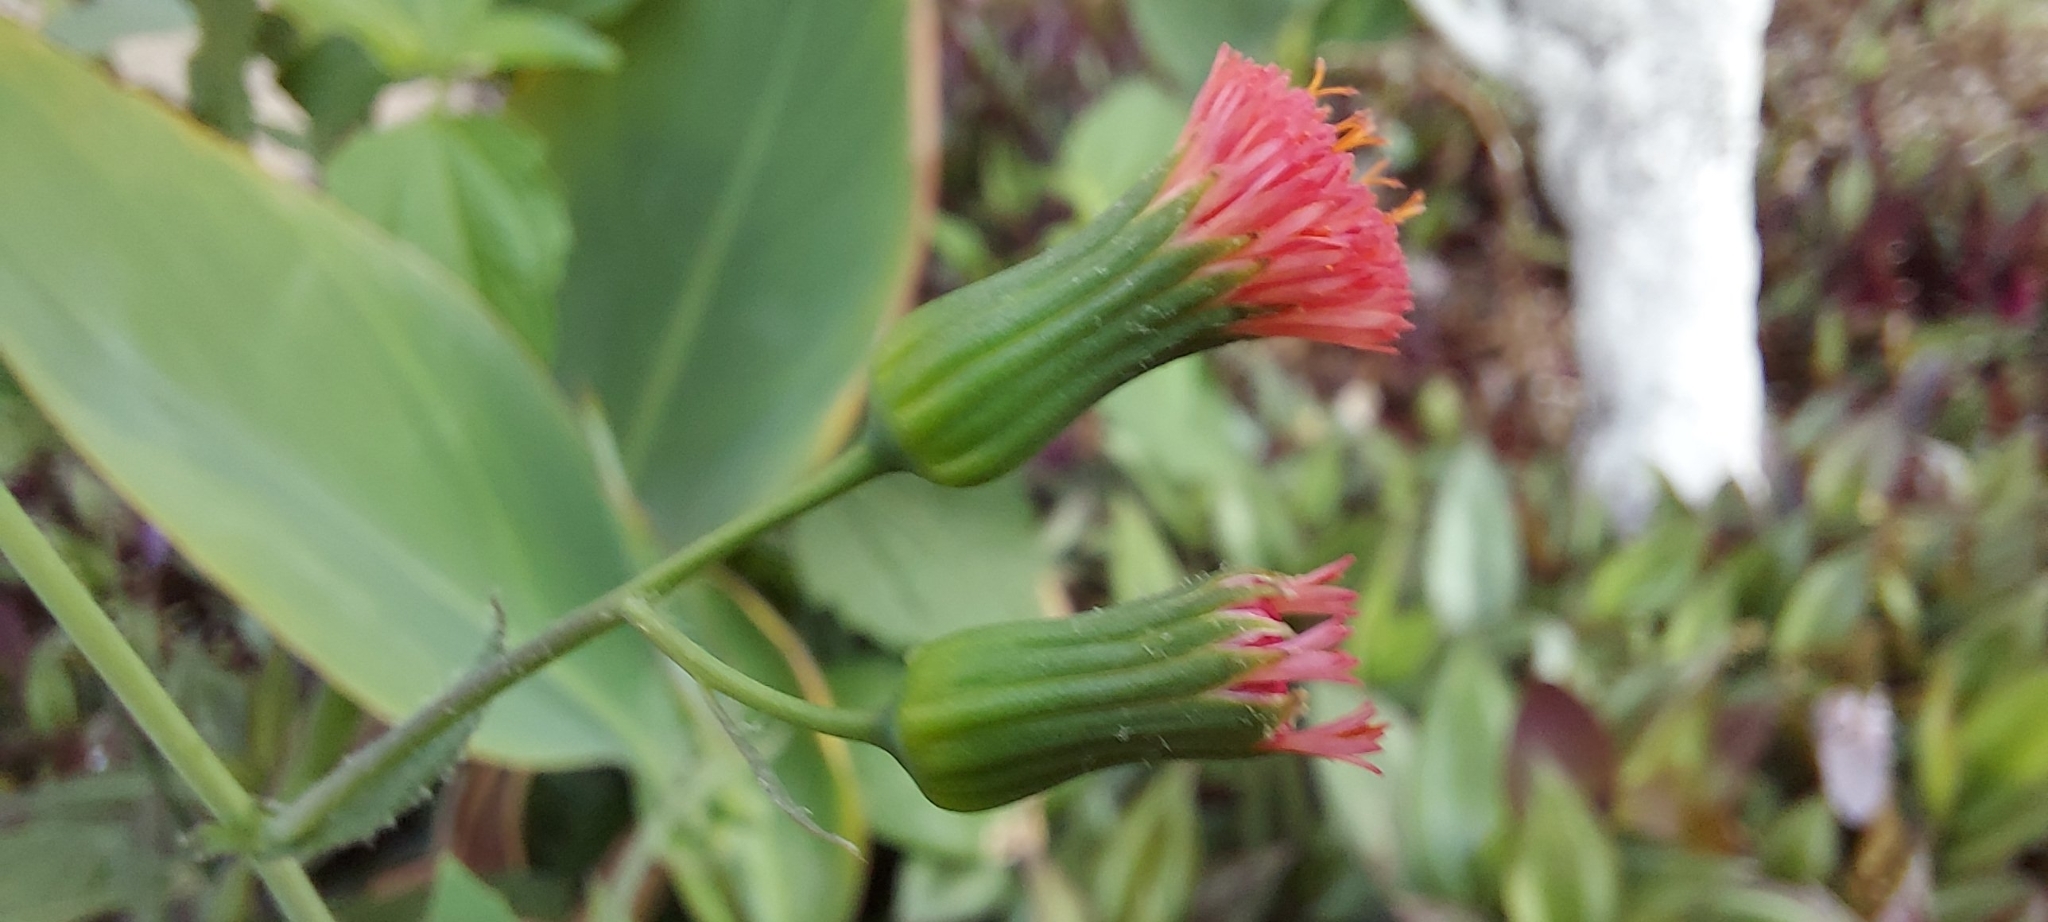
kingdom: Plantae
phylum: Tracheophyta
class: Magnoliopsida
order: Asterales
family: Asteraceae
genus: Emilia
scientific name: Emilia fosbergii
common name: Florida tasselflower
